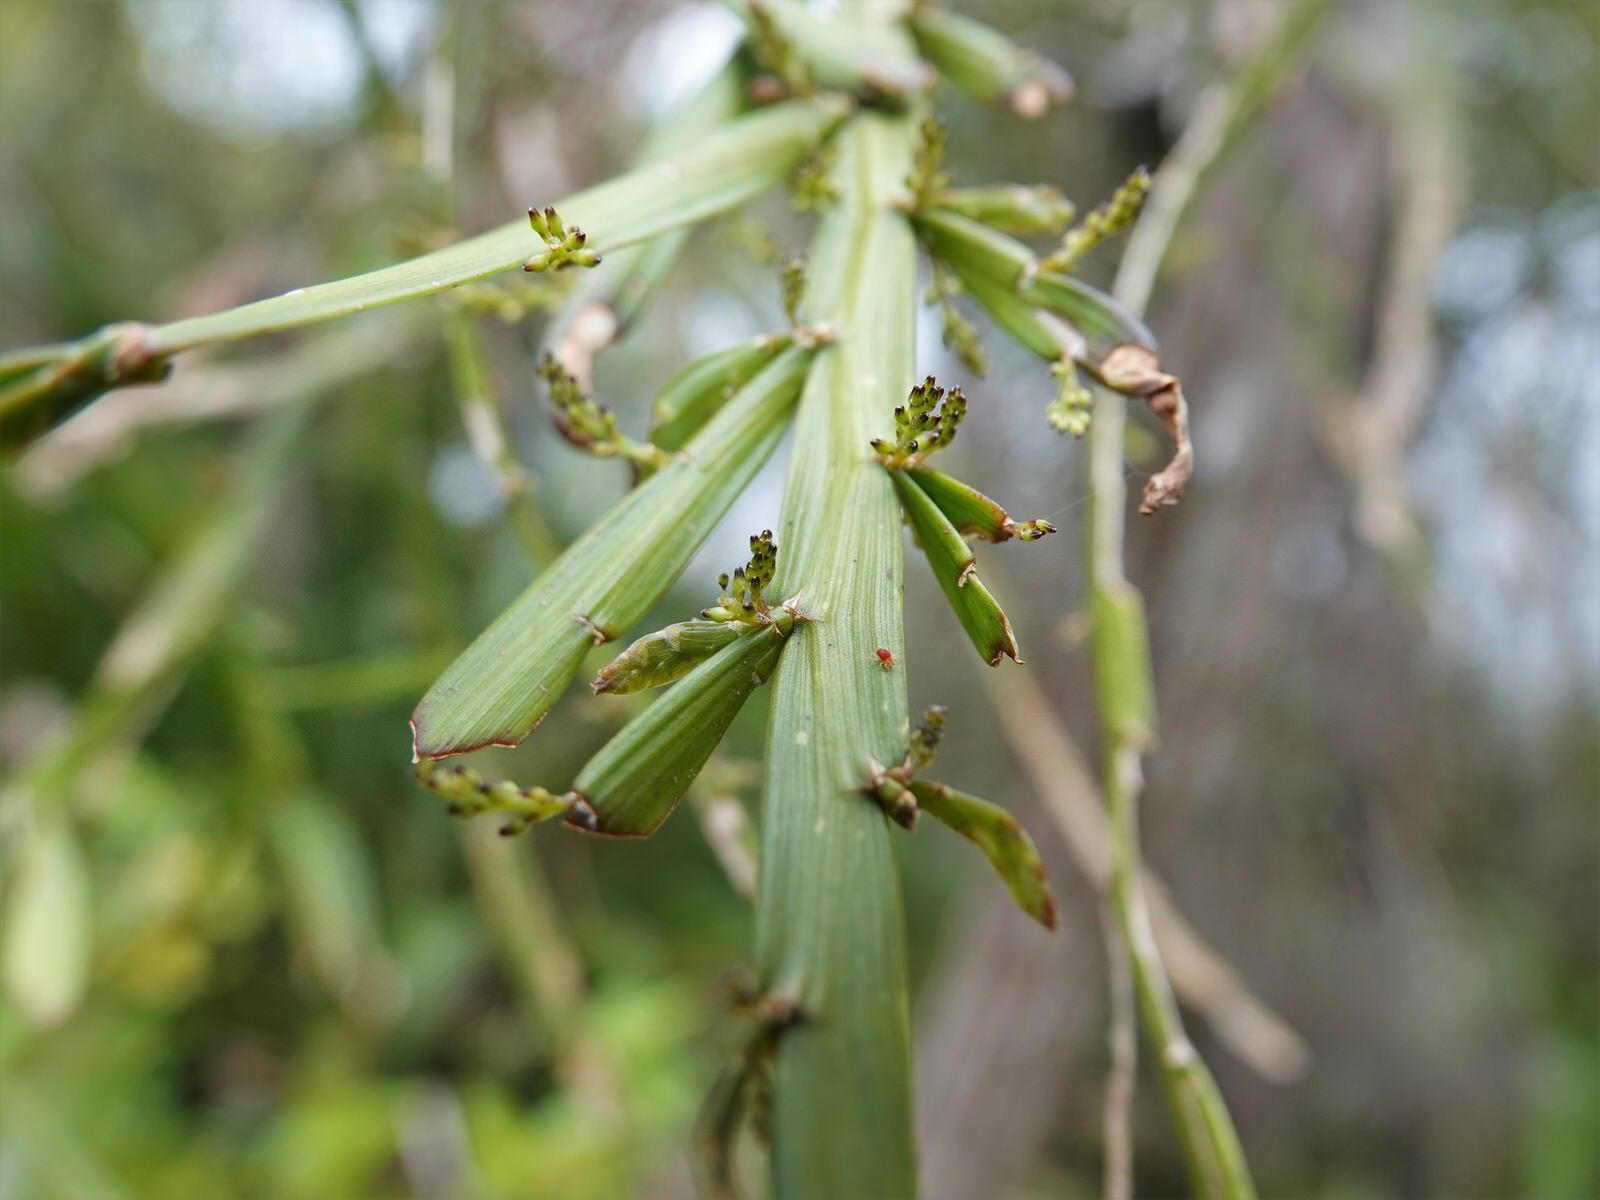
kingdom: Plantae
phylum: Tracheophyta
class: Magnoliopsida
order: Fabales
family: Fabaceae
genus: Carmichaelia
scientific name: Carmichaelia australis
